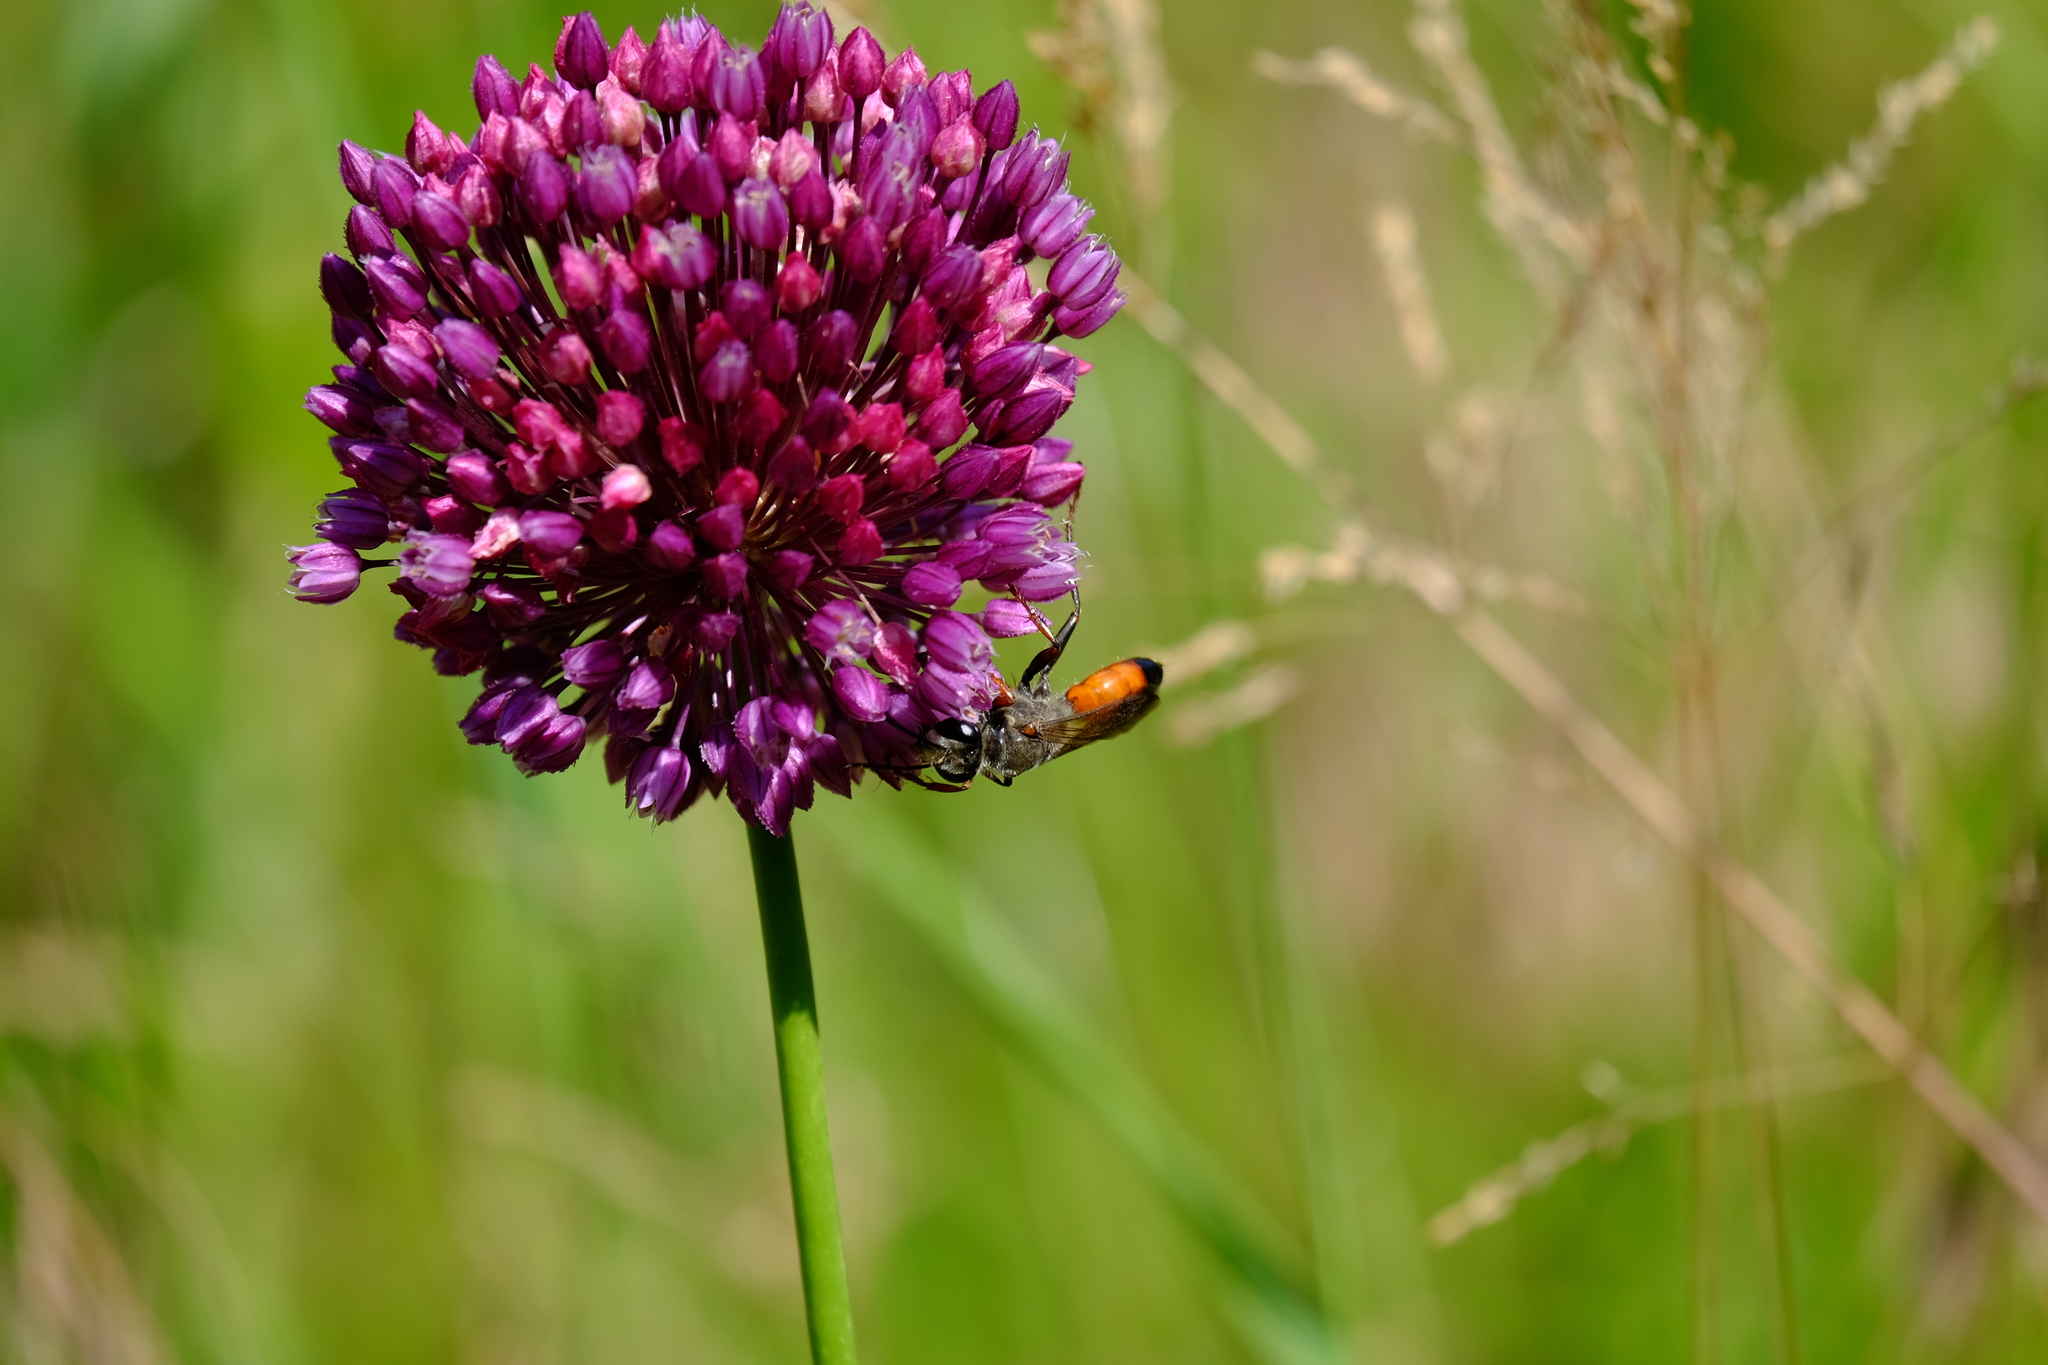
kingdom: Animalia
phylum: Arthropoda
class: Insecta
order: Hymenoptera
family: Sphecidae
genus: Sphex
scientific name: Sphex funerarius
